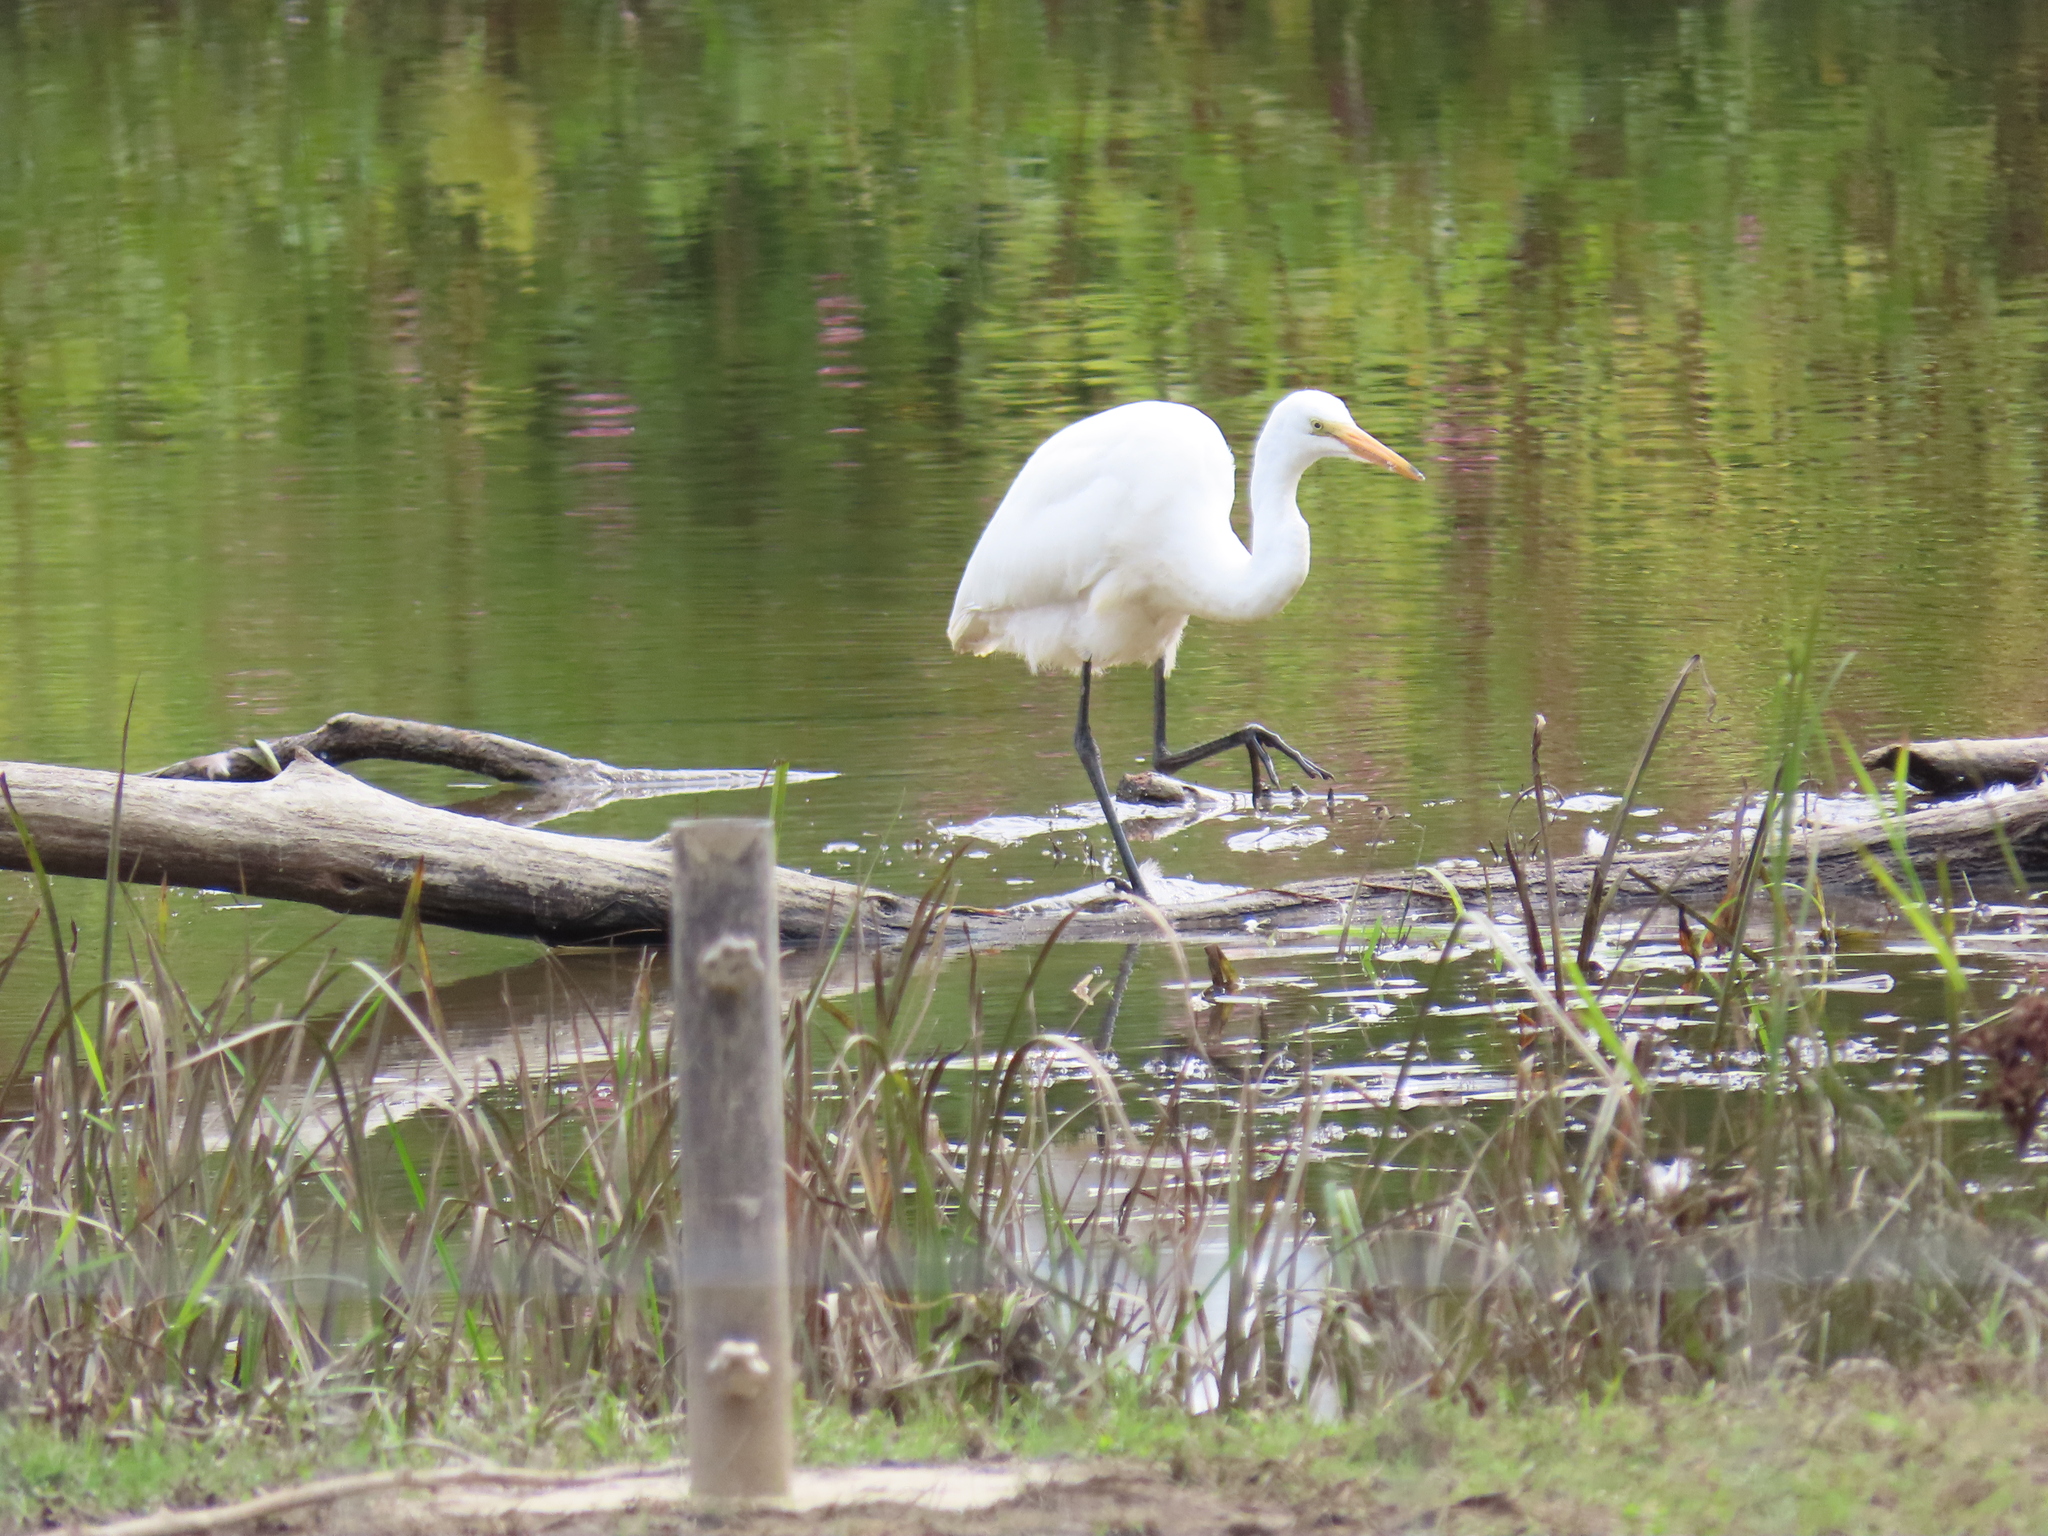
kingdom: Animalia
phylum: Chordata
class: Aves
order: Pelecaniformes
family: Ardeidae
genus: Ardea
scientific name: Ardea alba
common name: Great egret
